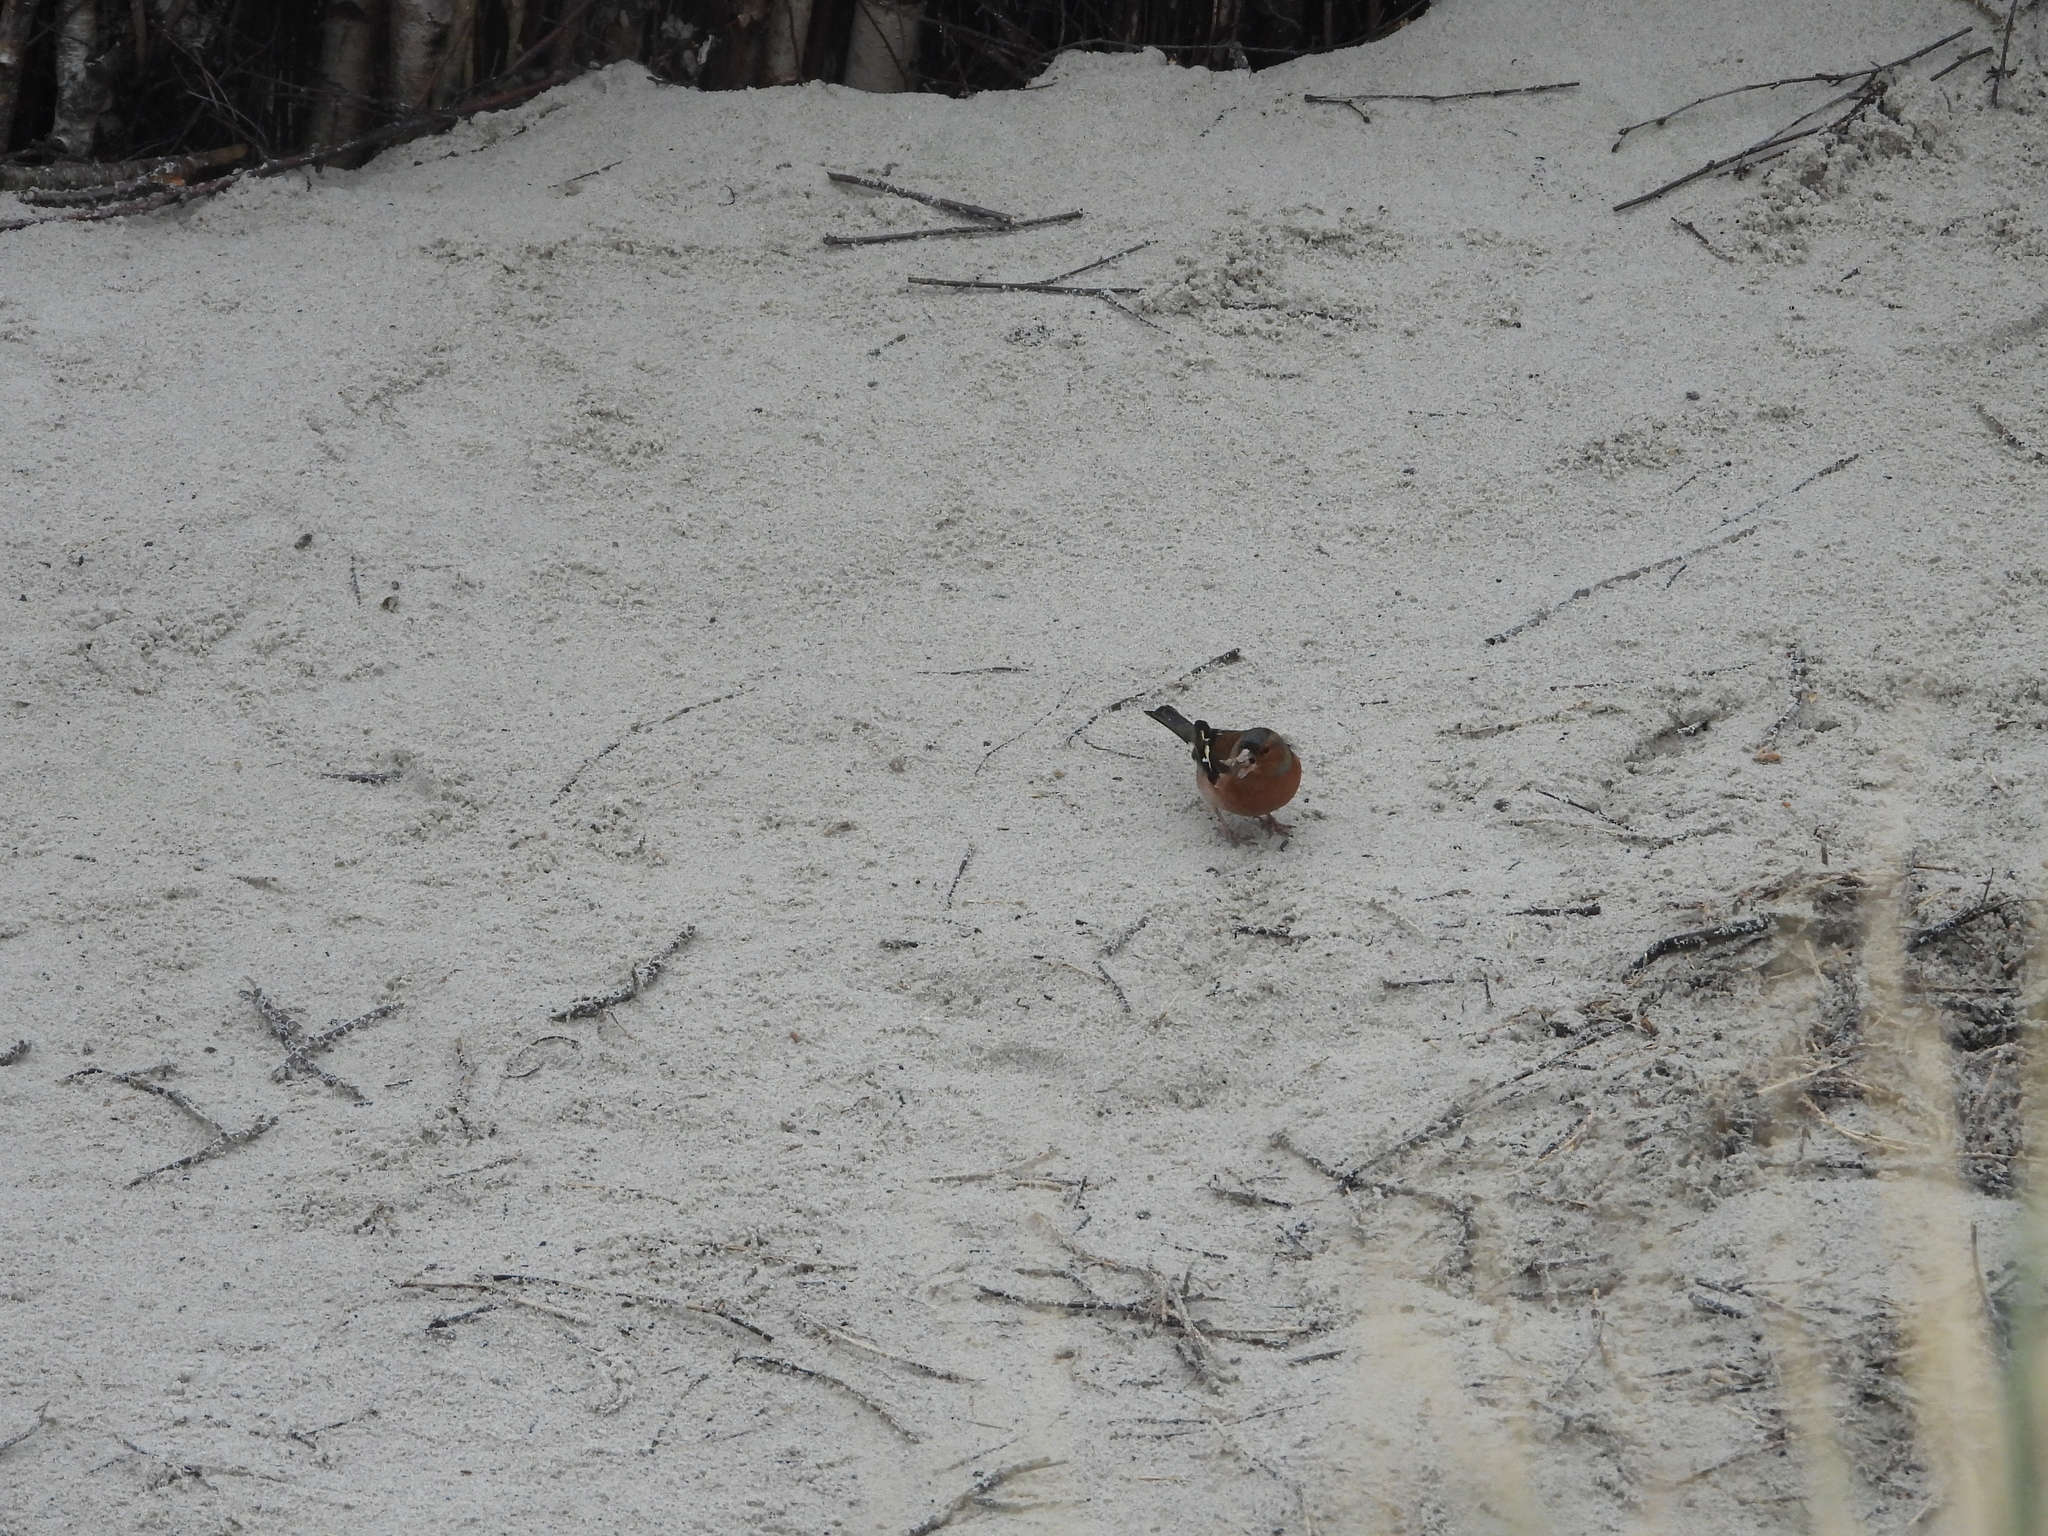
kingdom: Animalia
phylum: Chordata
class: Aves
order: Passeriformes
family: Fringillidae
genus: Fringilla
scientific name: Fringilla coelebs
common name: Common chaffinch
